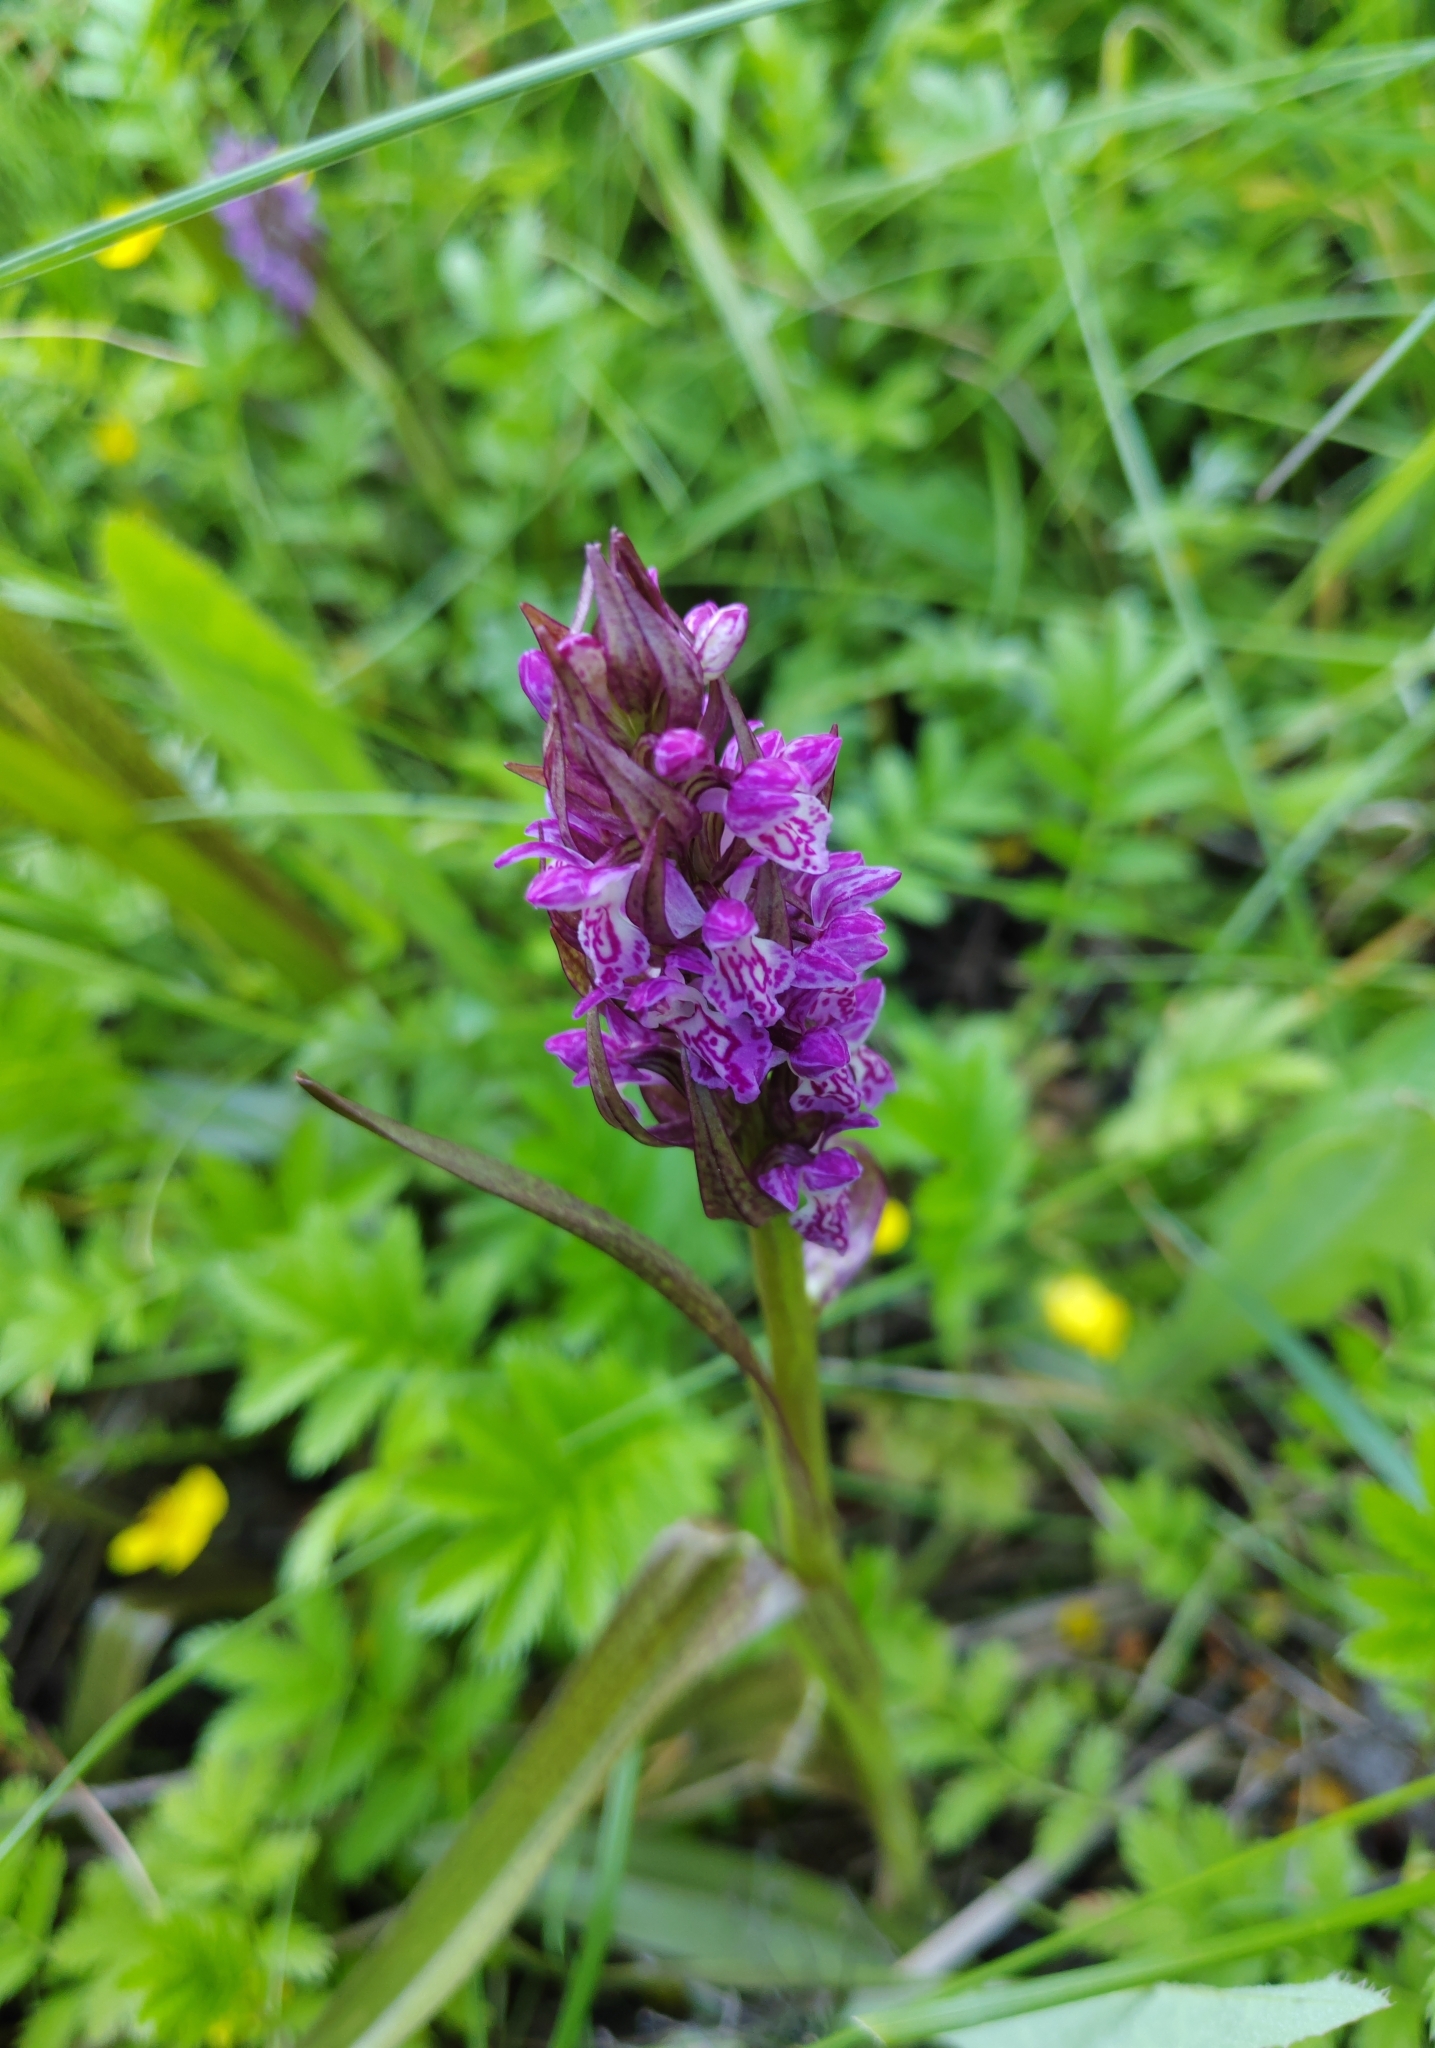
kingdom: Plantae
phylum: Tracheophyta
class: Liliopsida
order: Asparagales
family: Orchidaceae
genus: Dactylorhiza
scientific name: Dactylorhiza incarnata
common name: Early marsh-orchid
